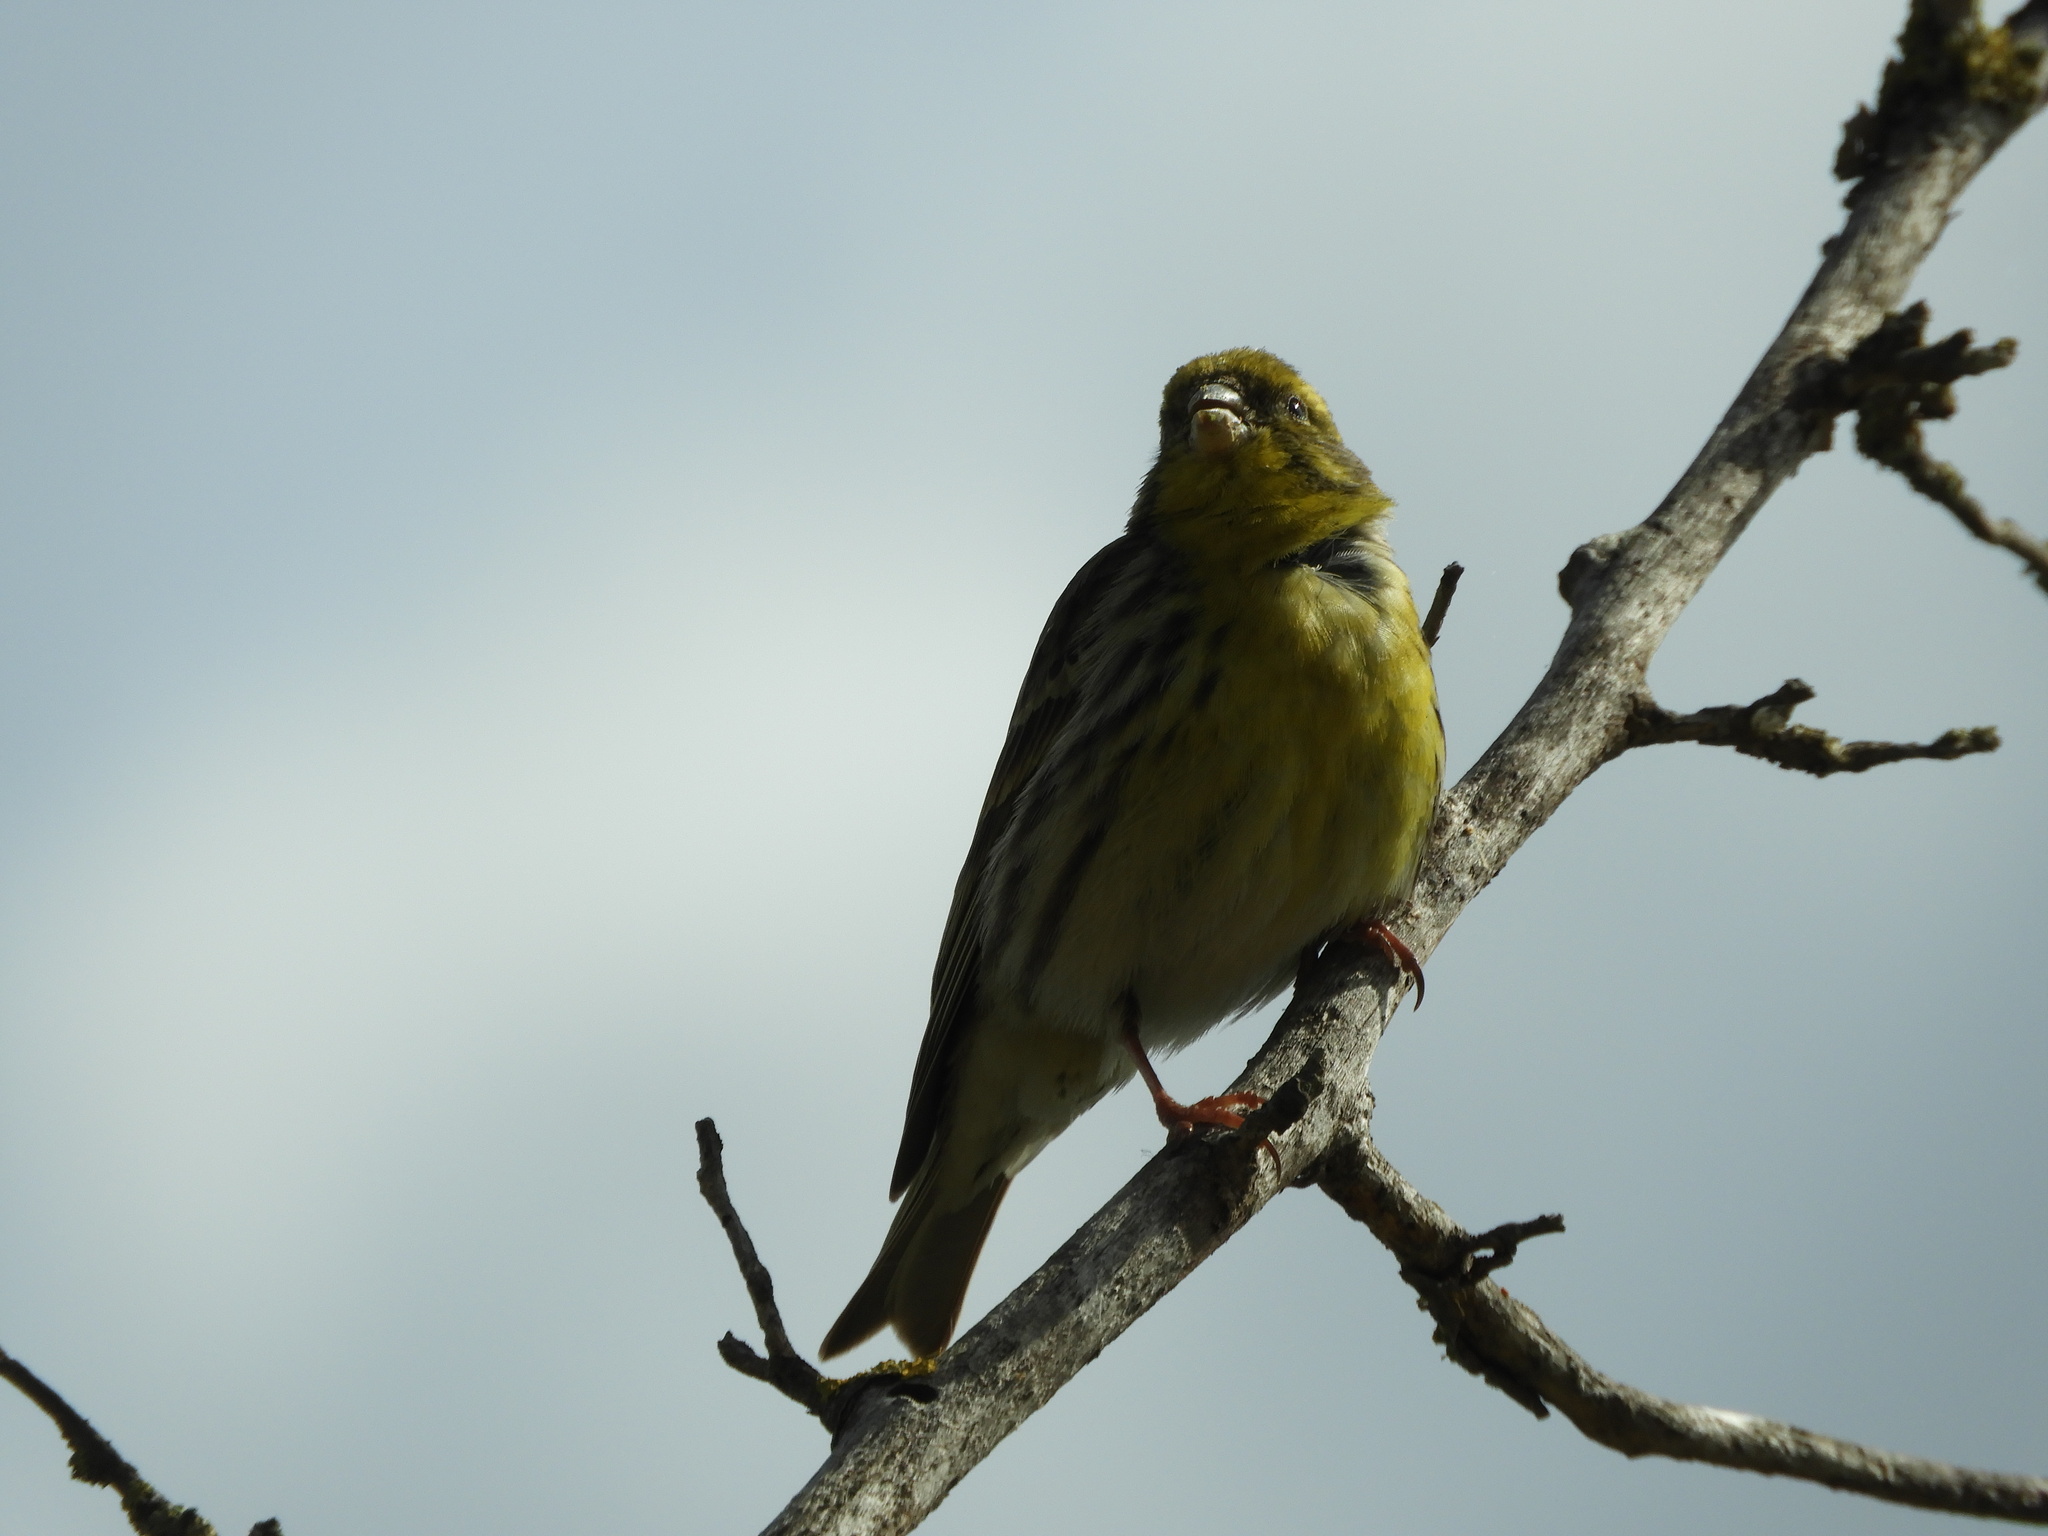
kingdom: Animalia
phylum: Chordata
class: Aves
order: Passeriformes
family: Fringillidae
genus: Serinus
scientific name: Serinus serinus
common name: European serin
